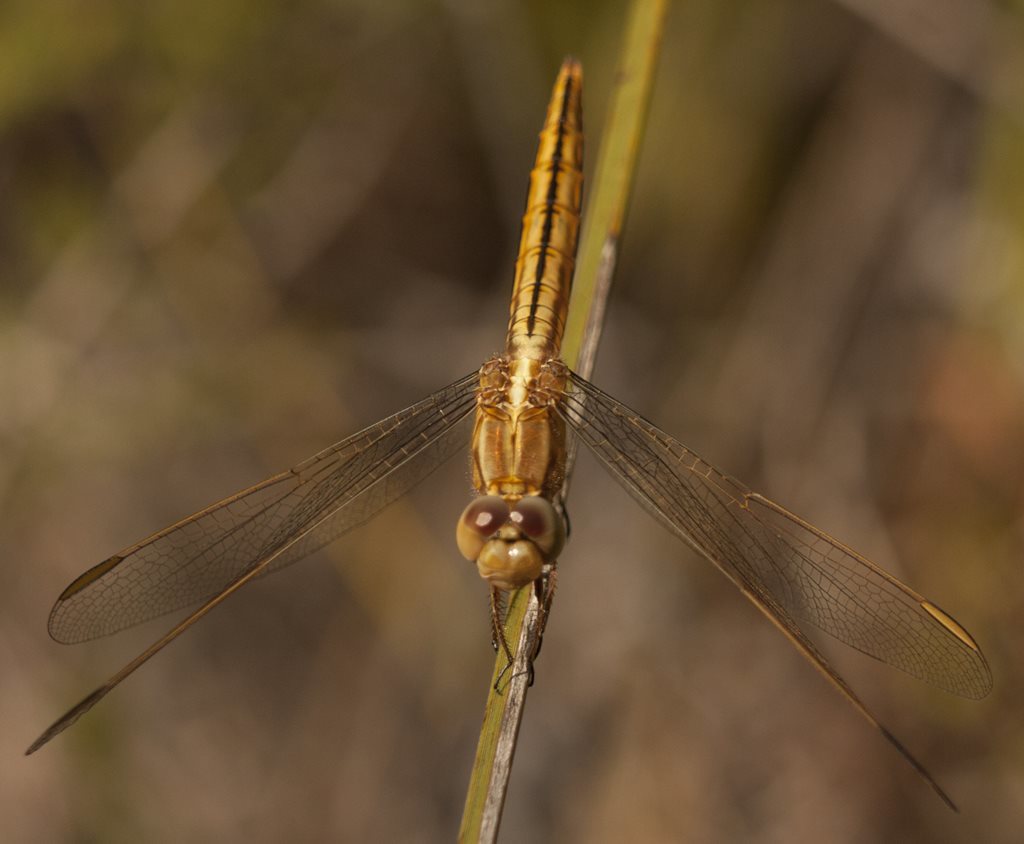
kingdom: Animalia
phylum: Arthropoda
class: Insecta
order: Odonata
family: Libellulidae
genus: Crocothemis
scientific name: Crocothemis nigrifrons
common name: Black-headed skimmer
